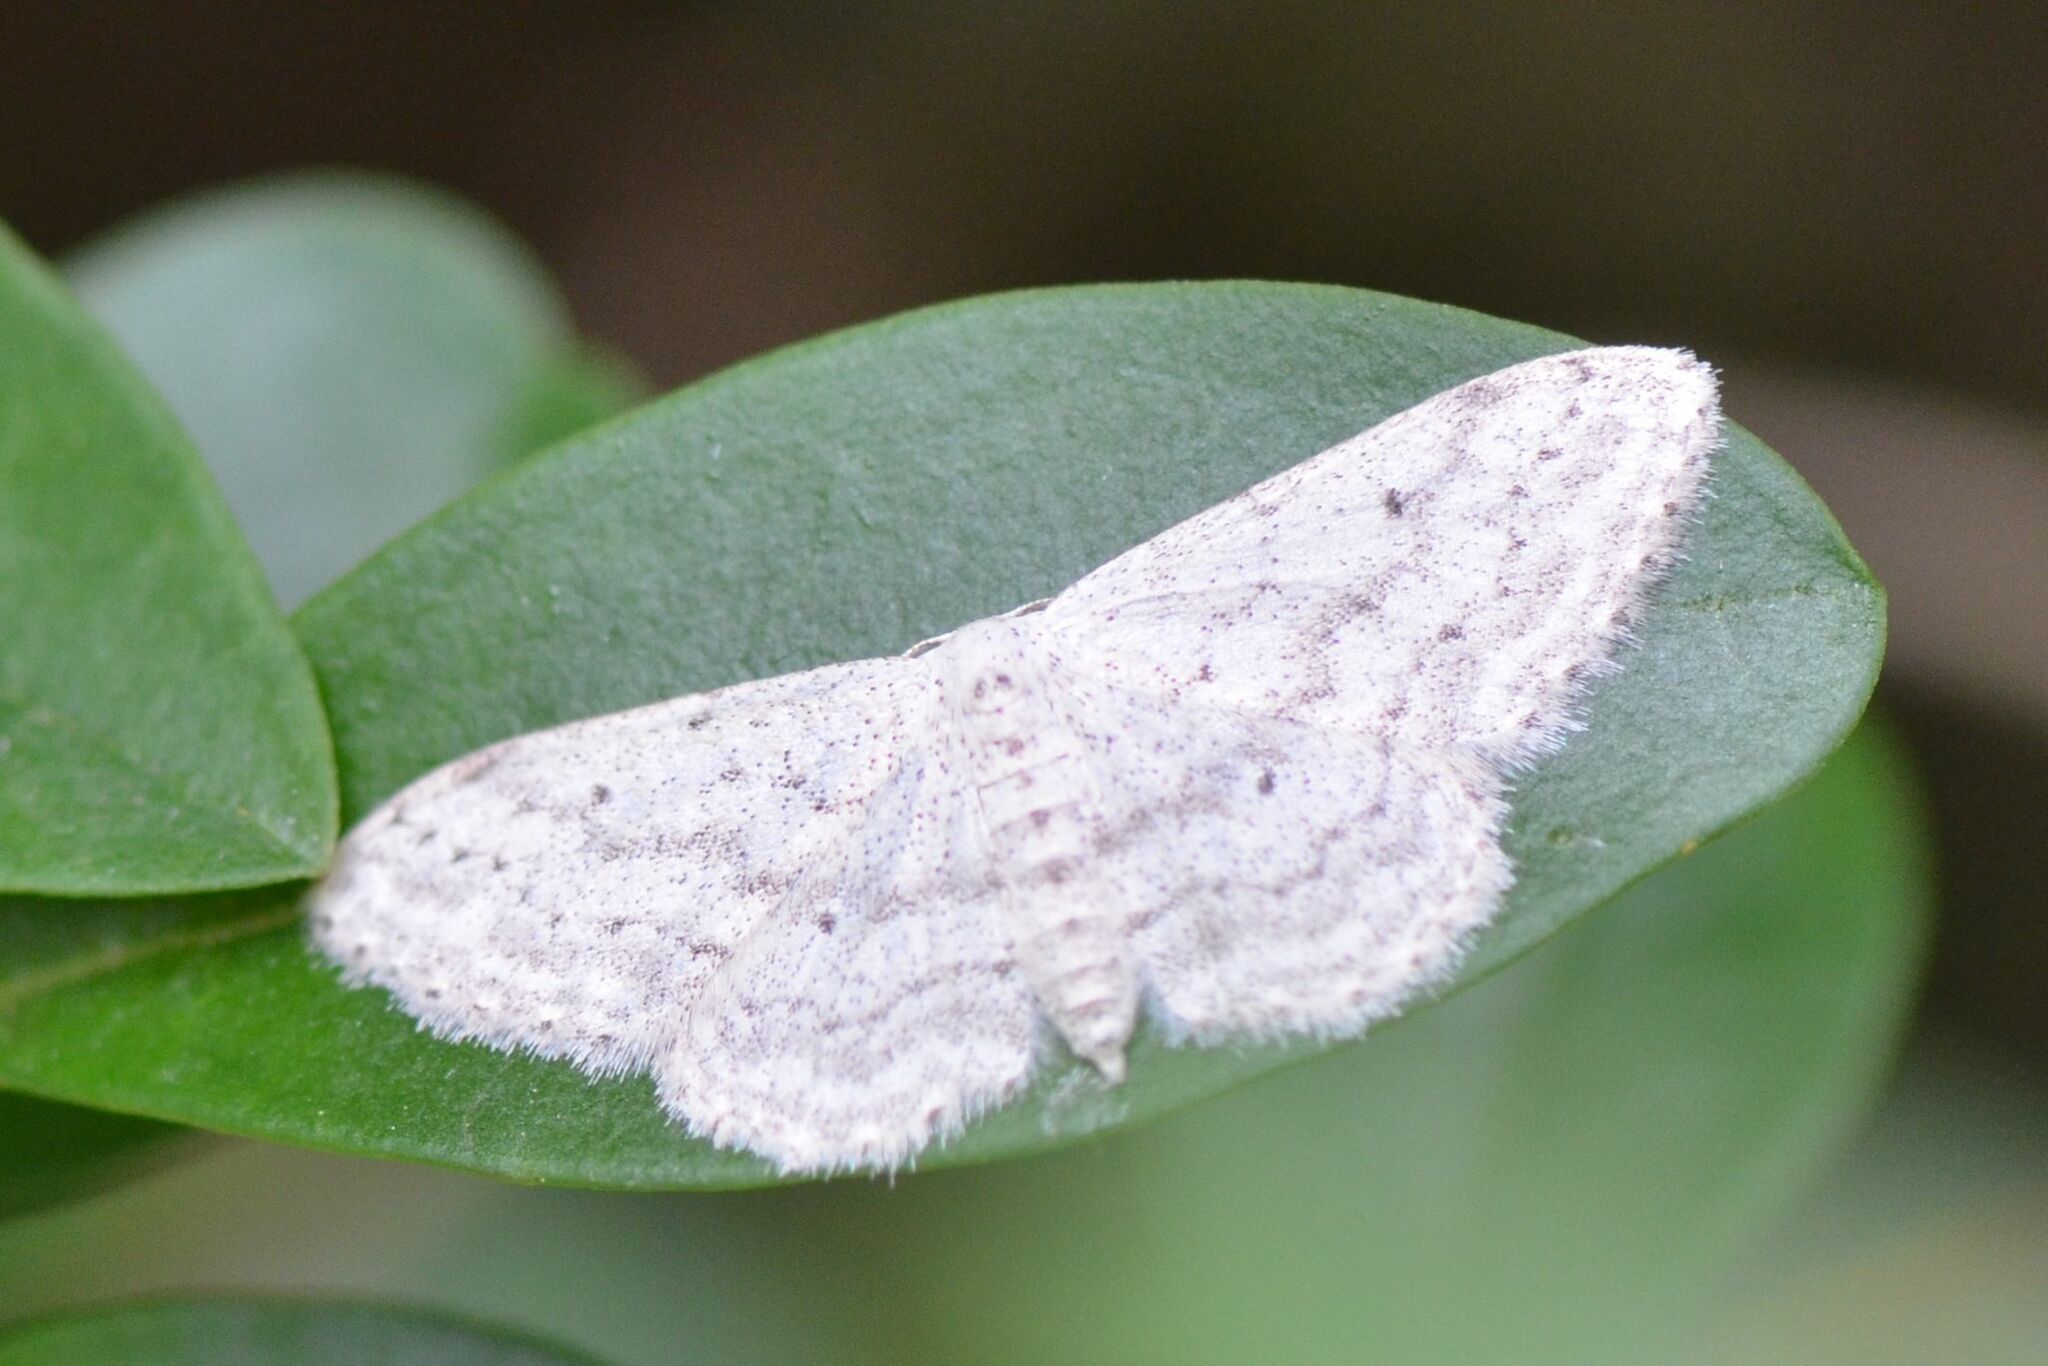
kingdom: Animalia
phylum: Arthropoda
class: Insecta
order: Lepidoptera
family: Geometridae
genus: Idaea
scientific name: Idaea seriata
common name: Small dusty wave
